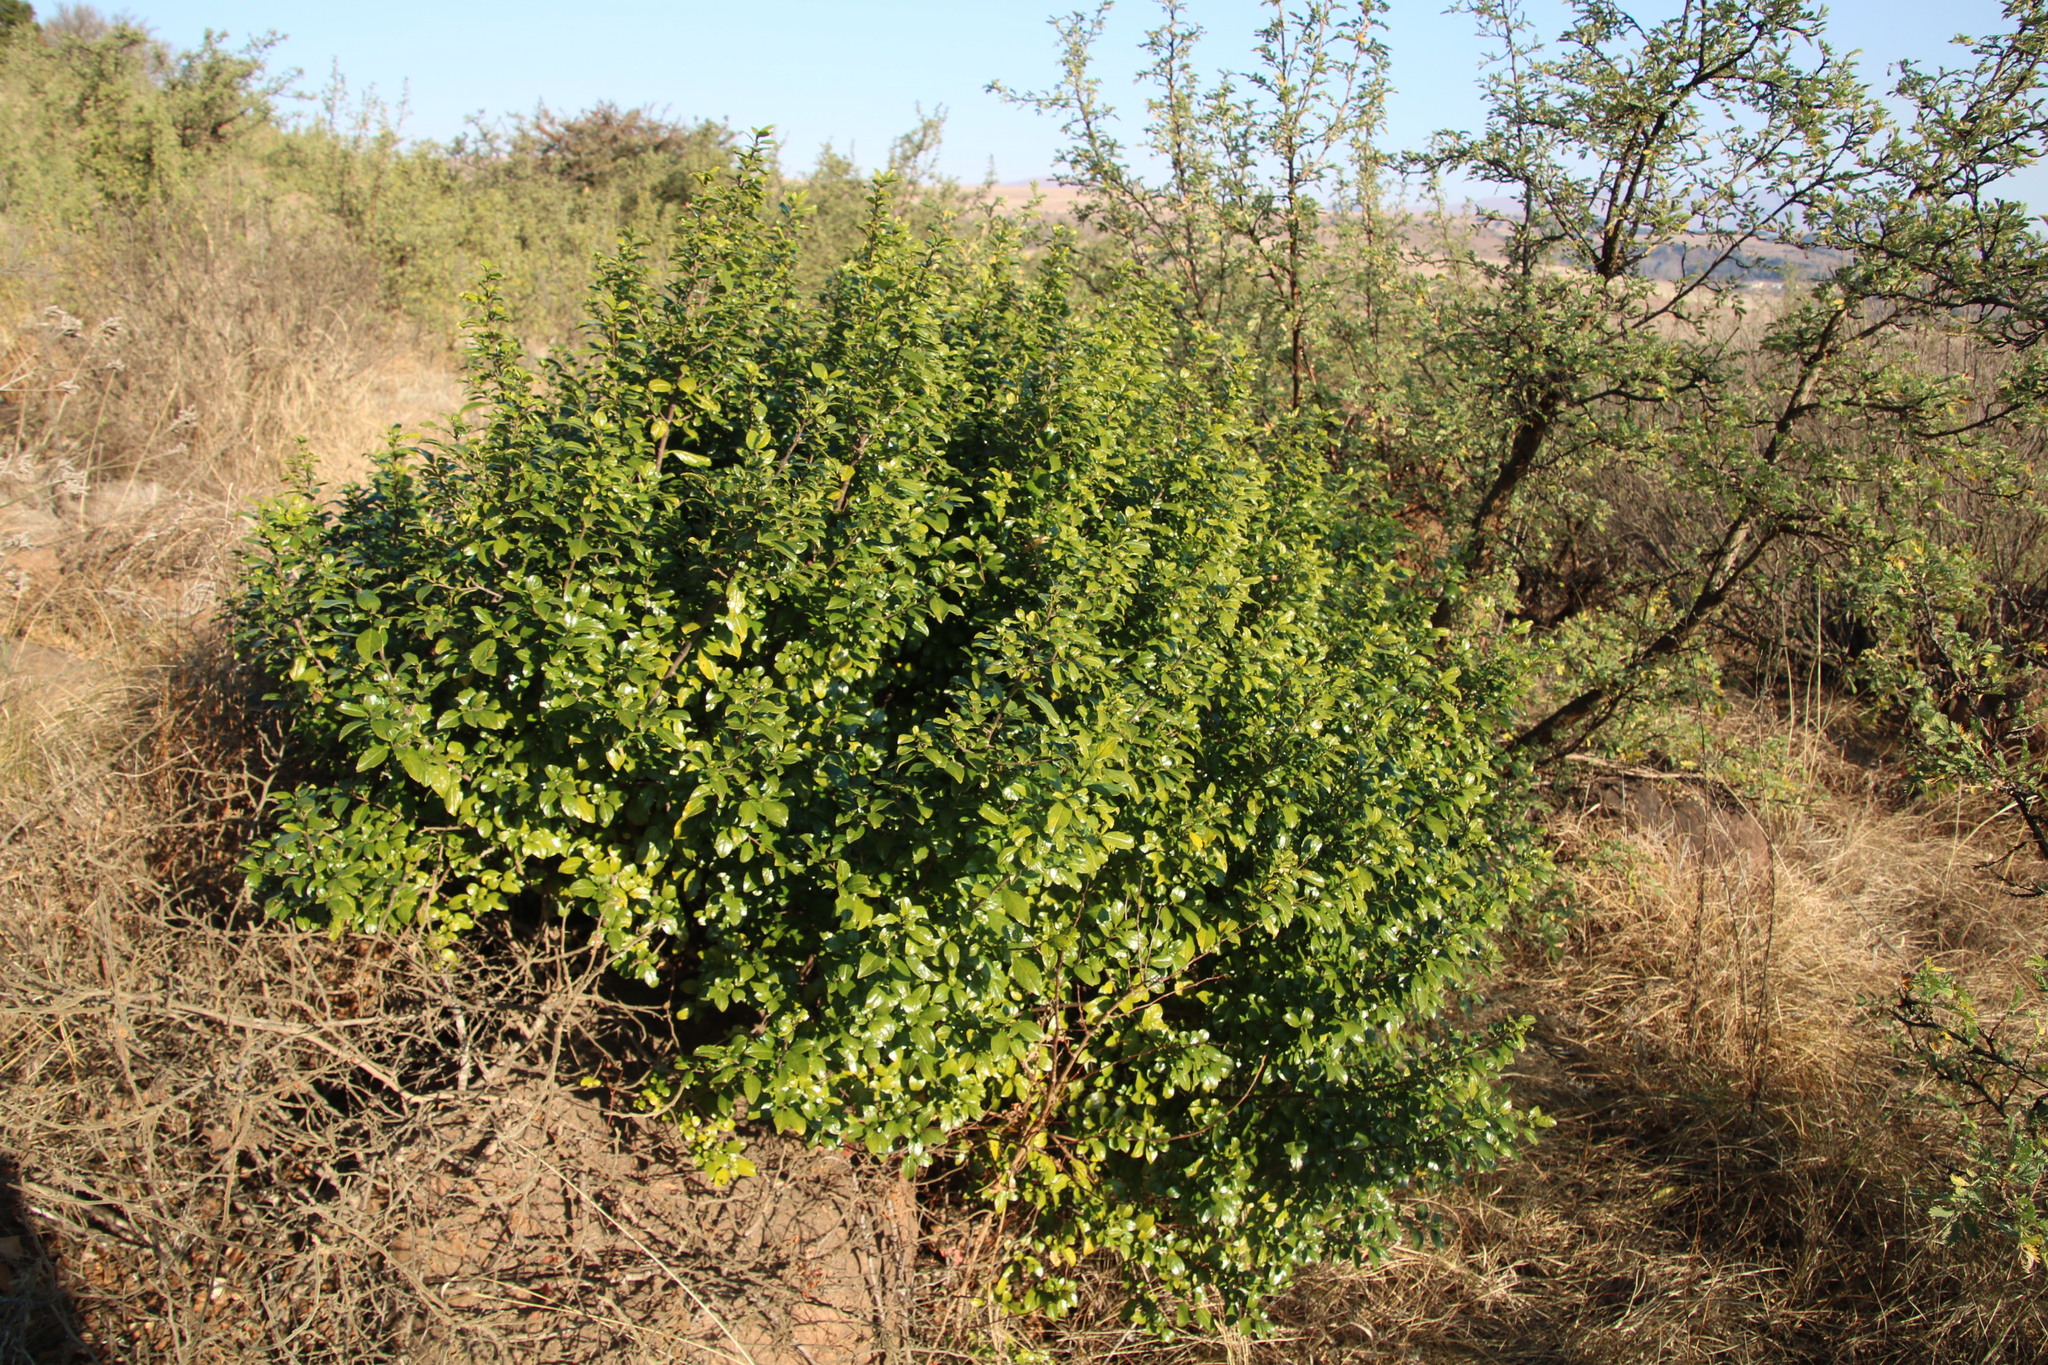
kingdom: Plantae
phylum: Tracheophyta
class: Magnoliopsida
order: Rosales
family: Rhamnaceae
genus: Rhamnus
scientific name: Rhamnus prinoides
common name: Dogwood
